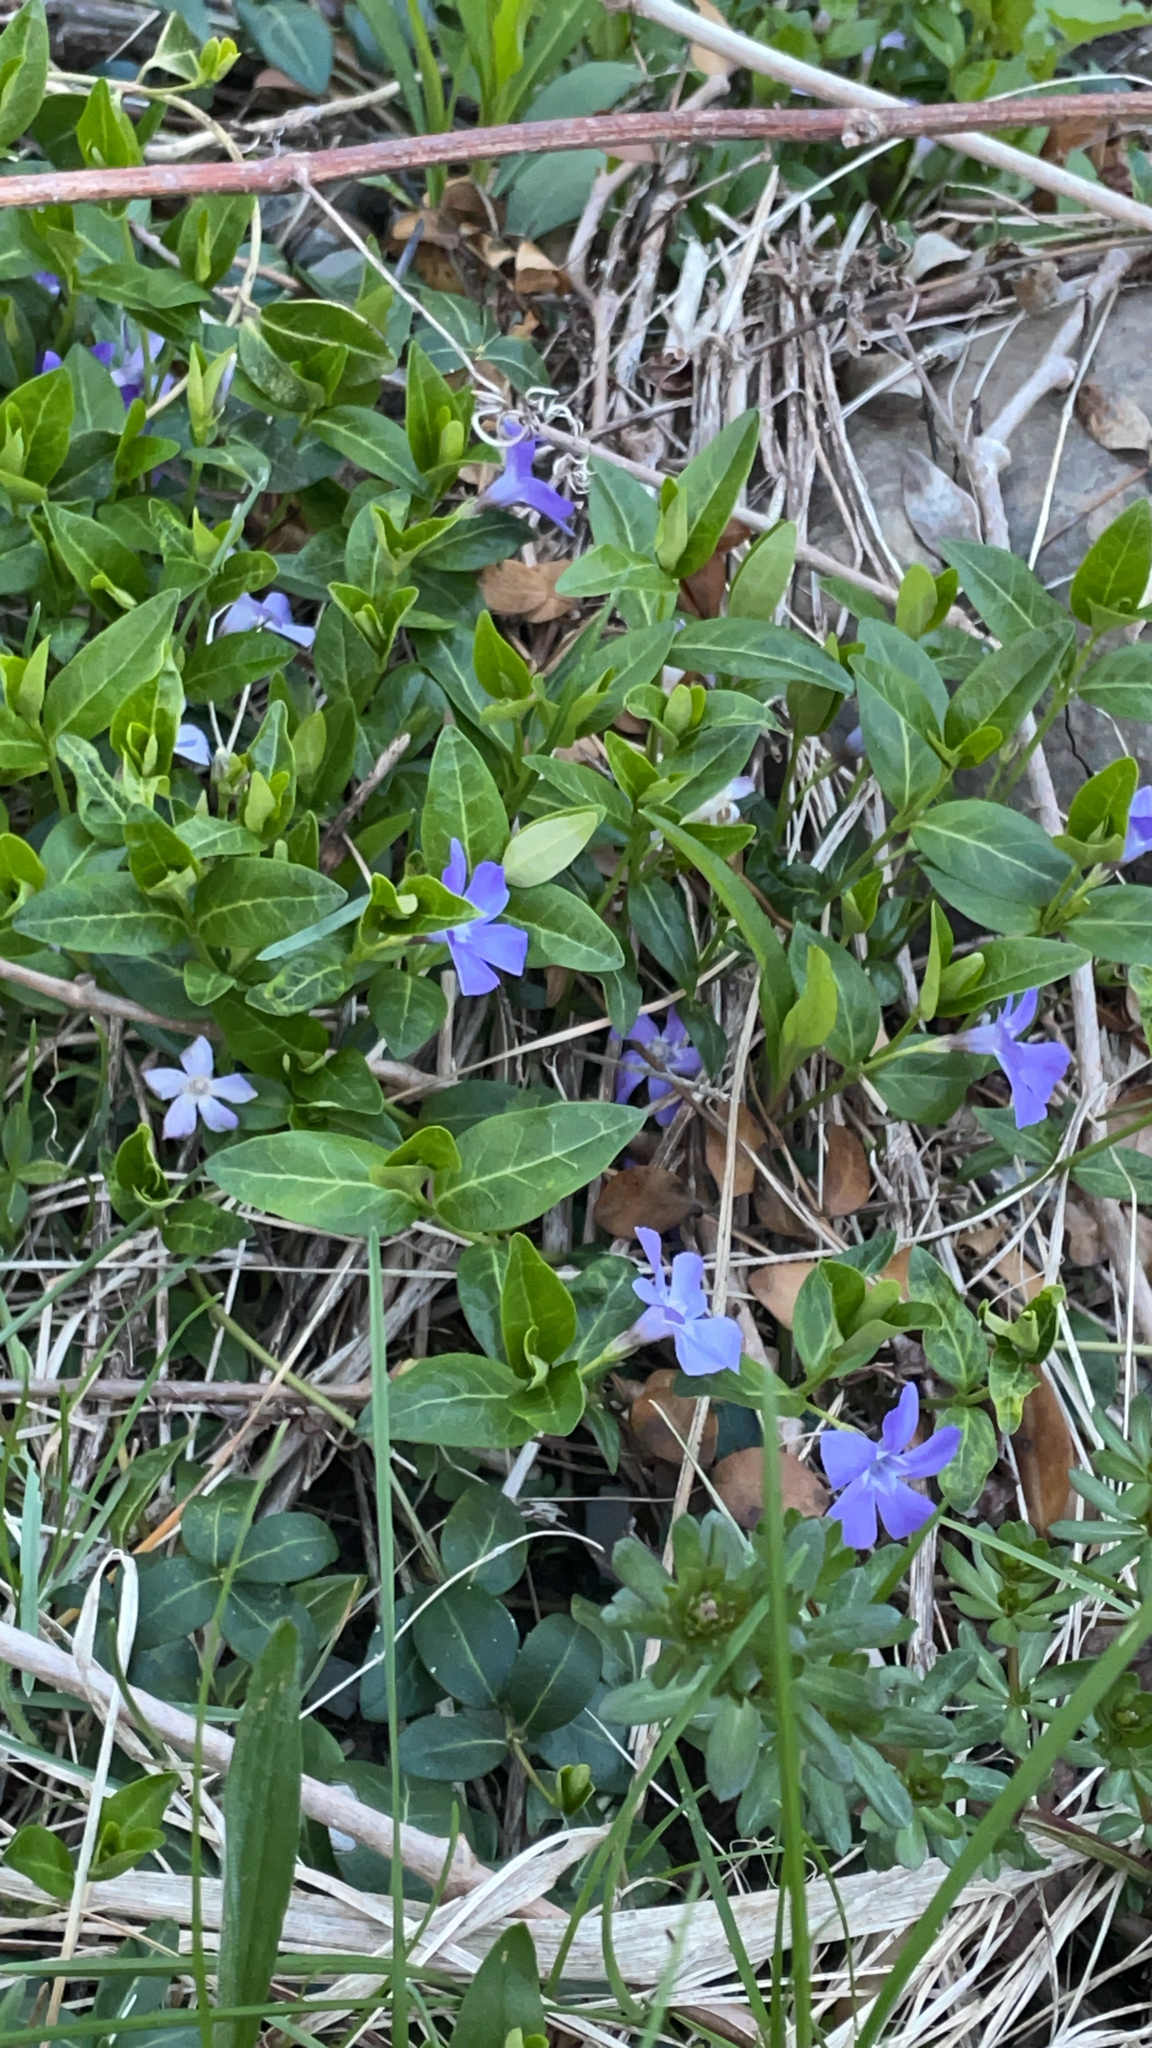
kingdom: Plantae
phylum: Tracheophyta
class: Magnoliopsida
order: Gentianales
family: Apocynaceae
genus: Vinca
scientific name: Vinca minor
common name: Lesser periwinkle
